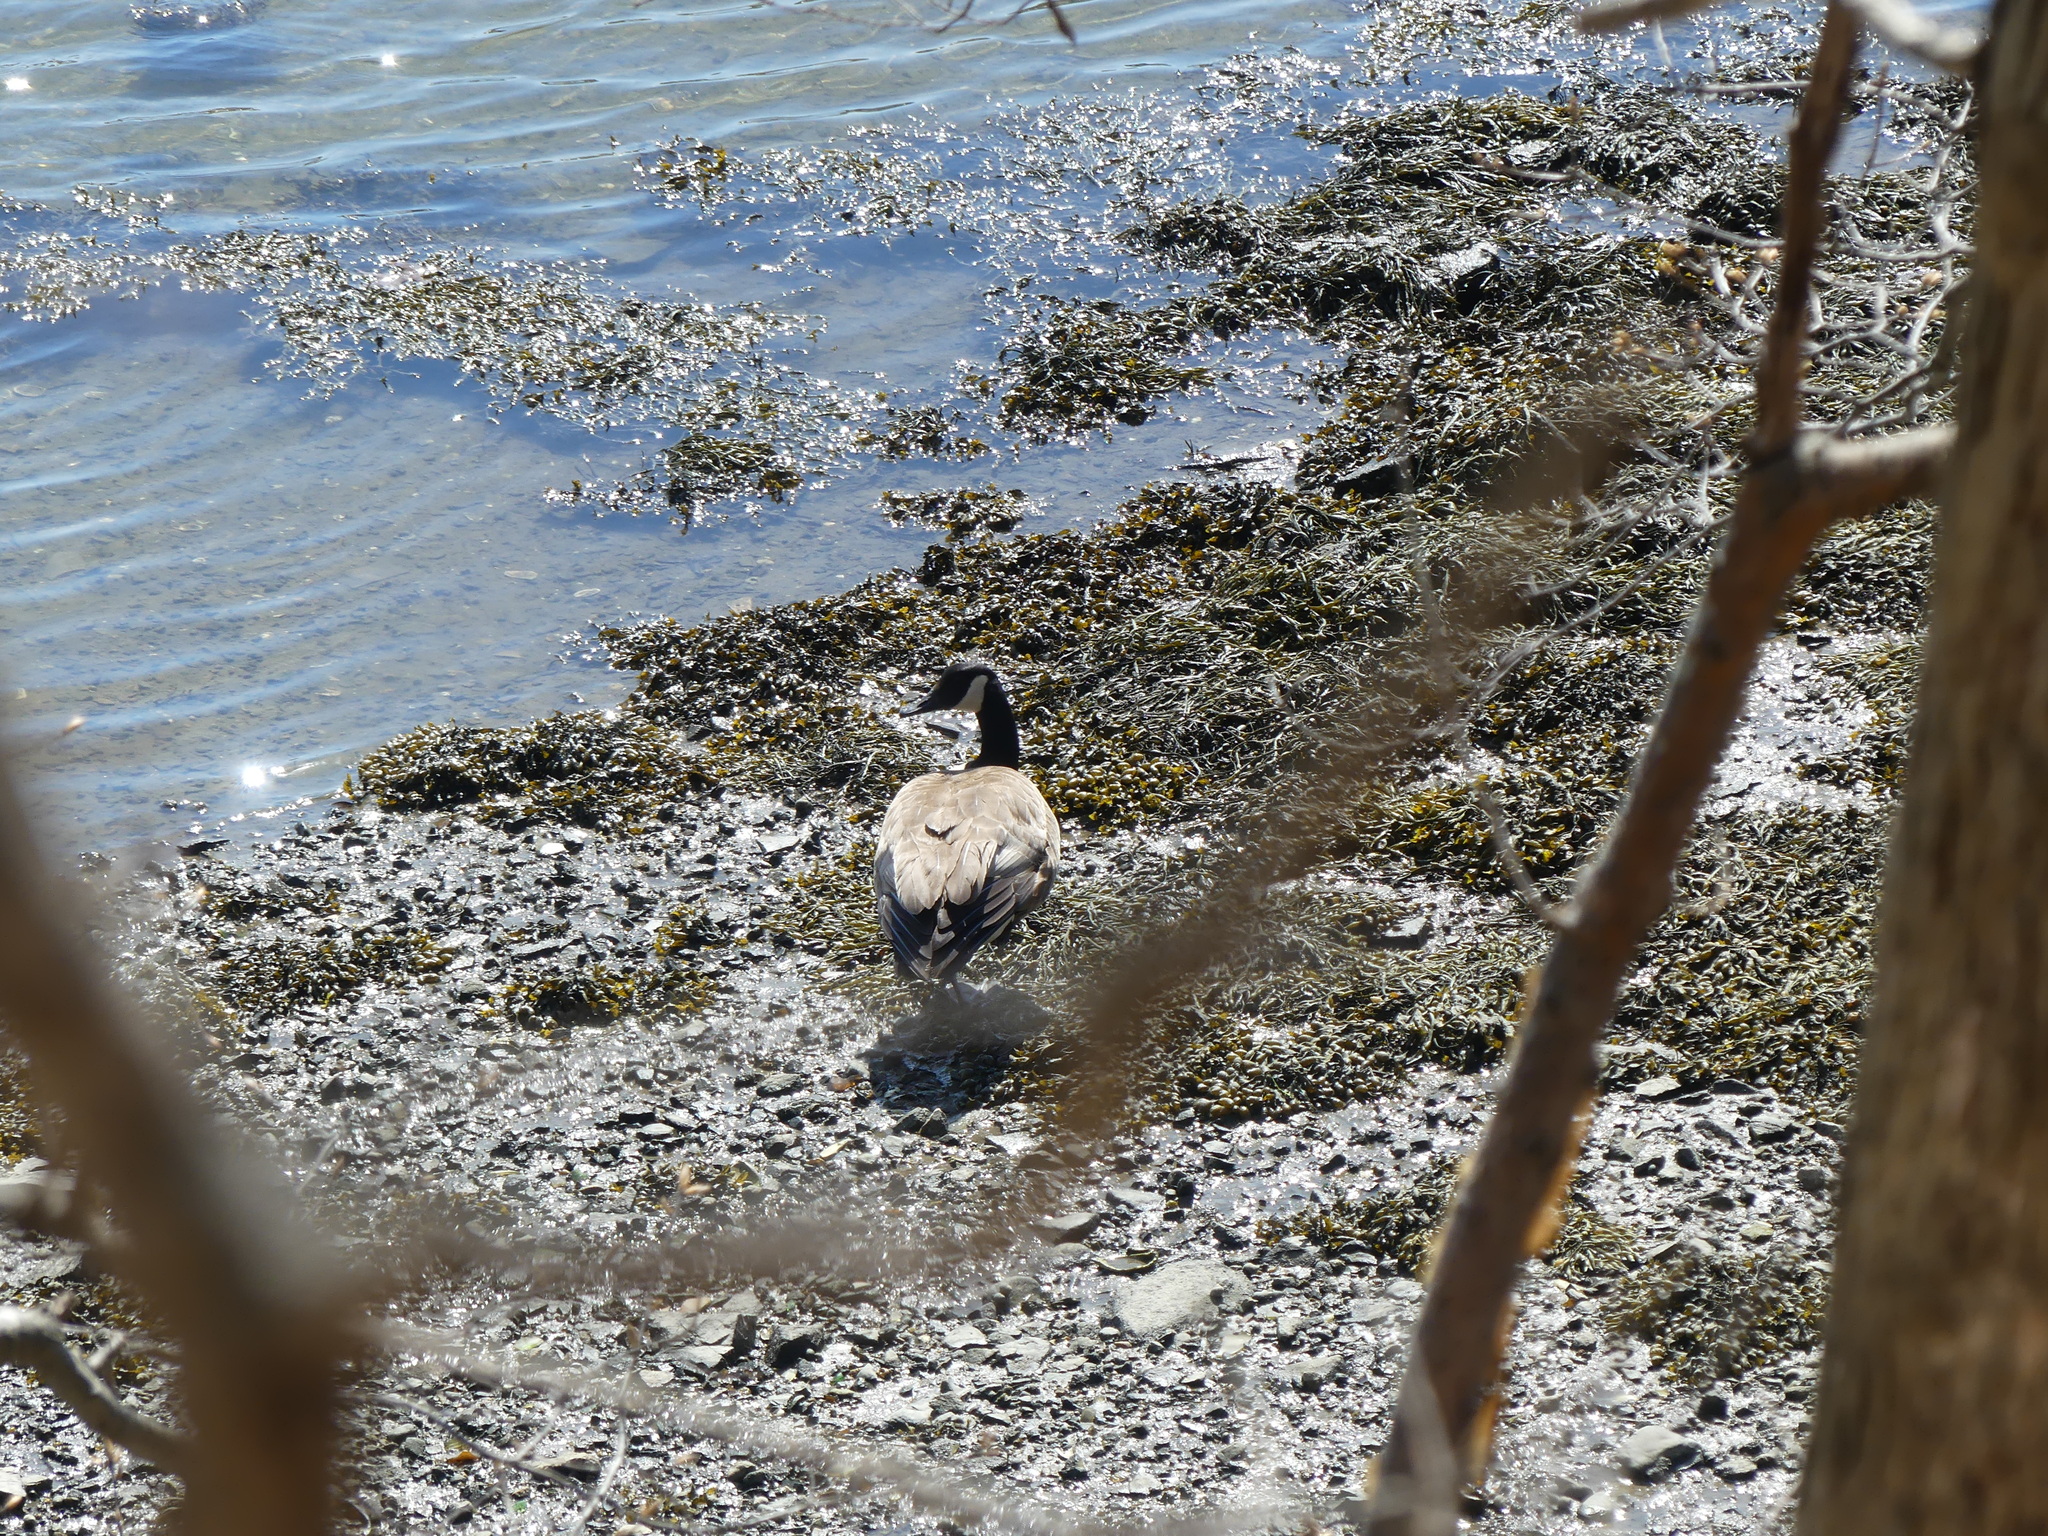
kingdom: Animalia
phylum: Chordata
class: Aves
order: Anseriformes
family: Anatidae
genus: Branta
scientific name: Branta canadensis
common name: Canada goose
